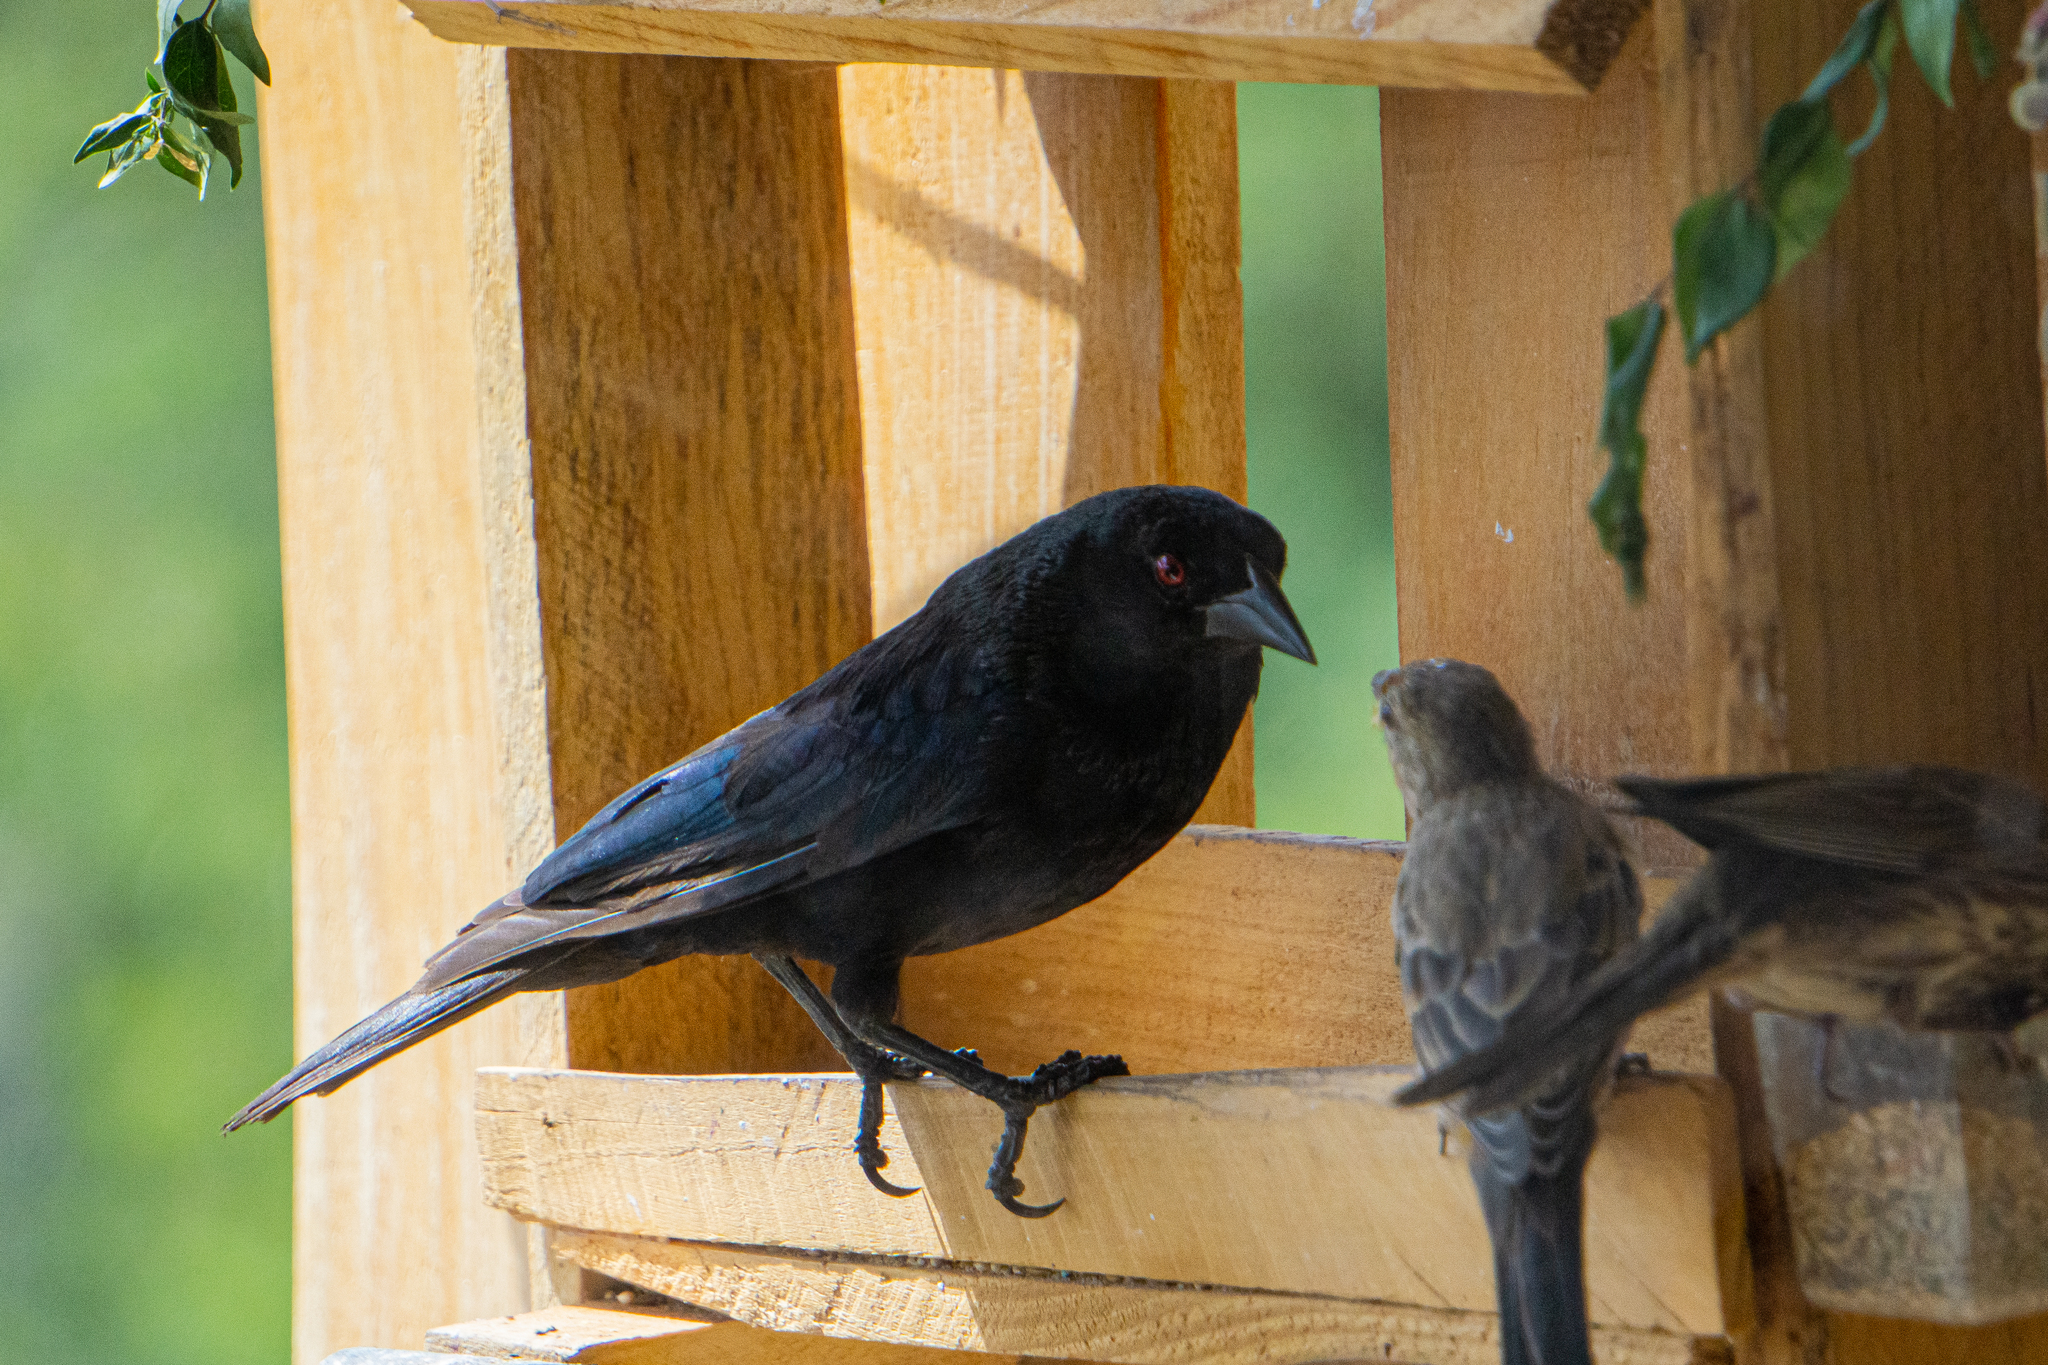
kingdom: Animalia
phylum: Chordata
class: Aves
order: Passeriformes
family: Icteridae
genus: Molothrus
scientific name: Molothrus aeneus
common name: Bronzed cowbird
